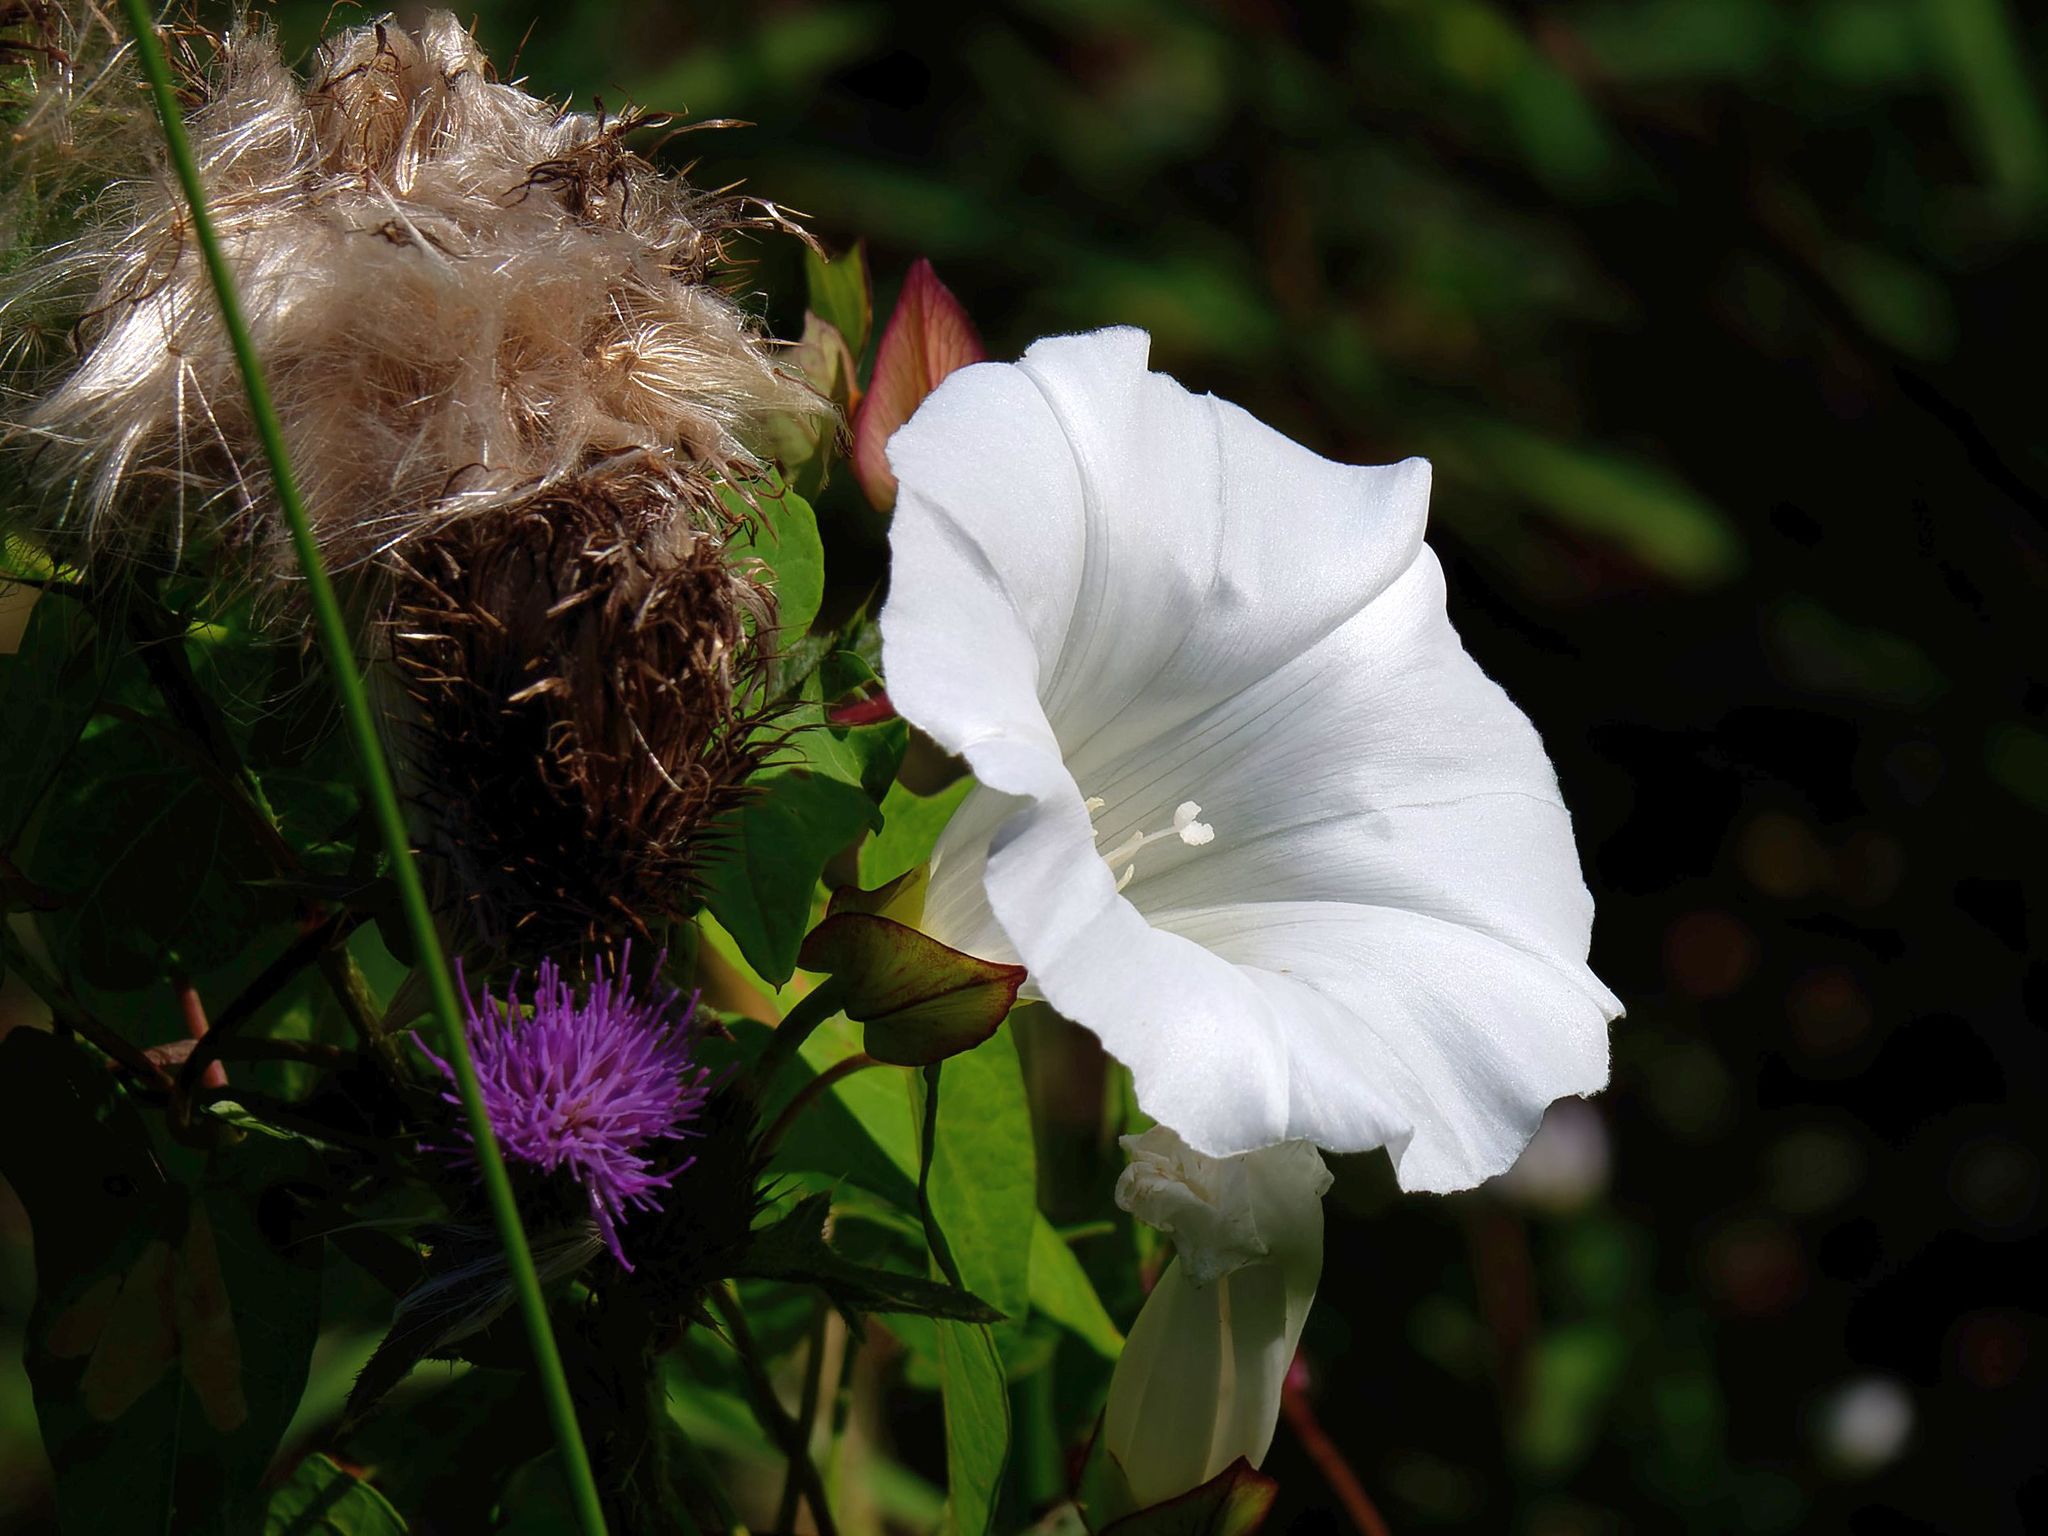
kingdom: Plantae
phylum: Tracheophyta
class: Magnoliopsida
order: Solanales
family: Convolvulaceae
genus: Calystegia
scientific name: Calystegia sepium
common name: Hedge bindweed
